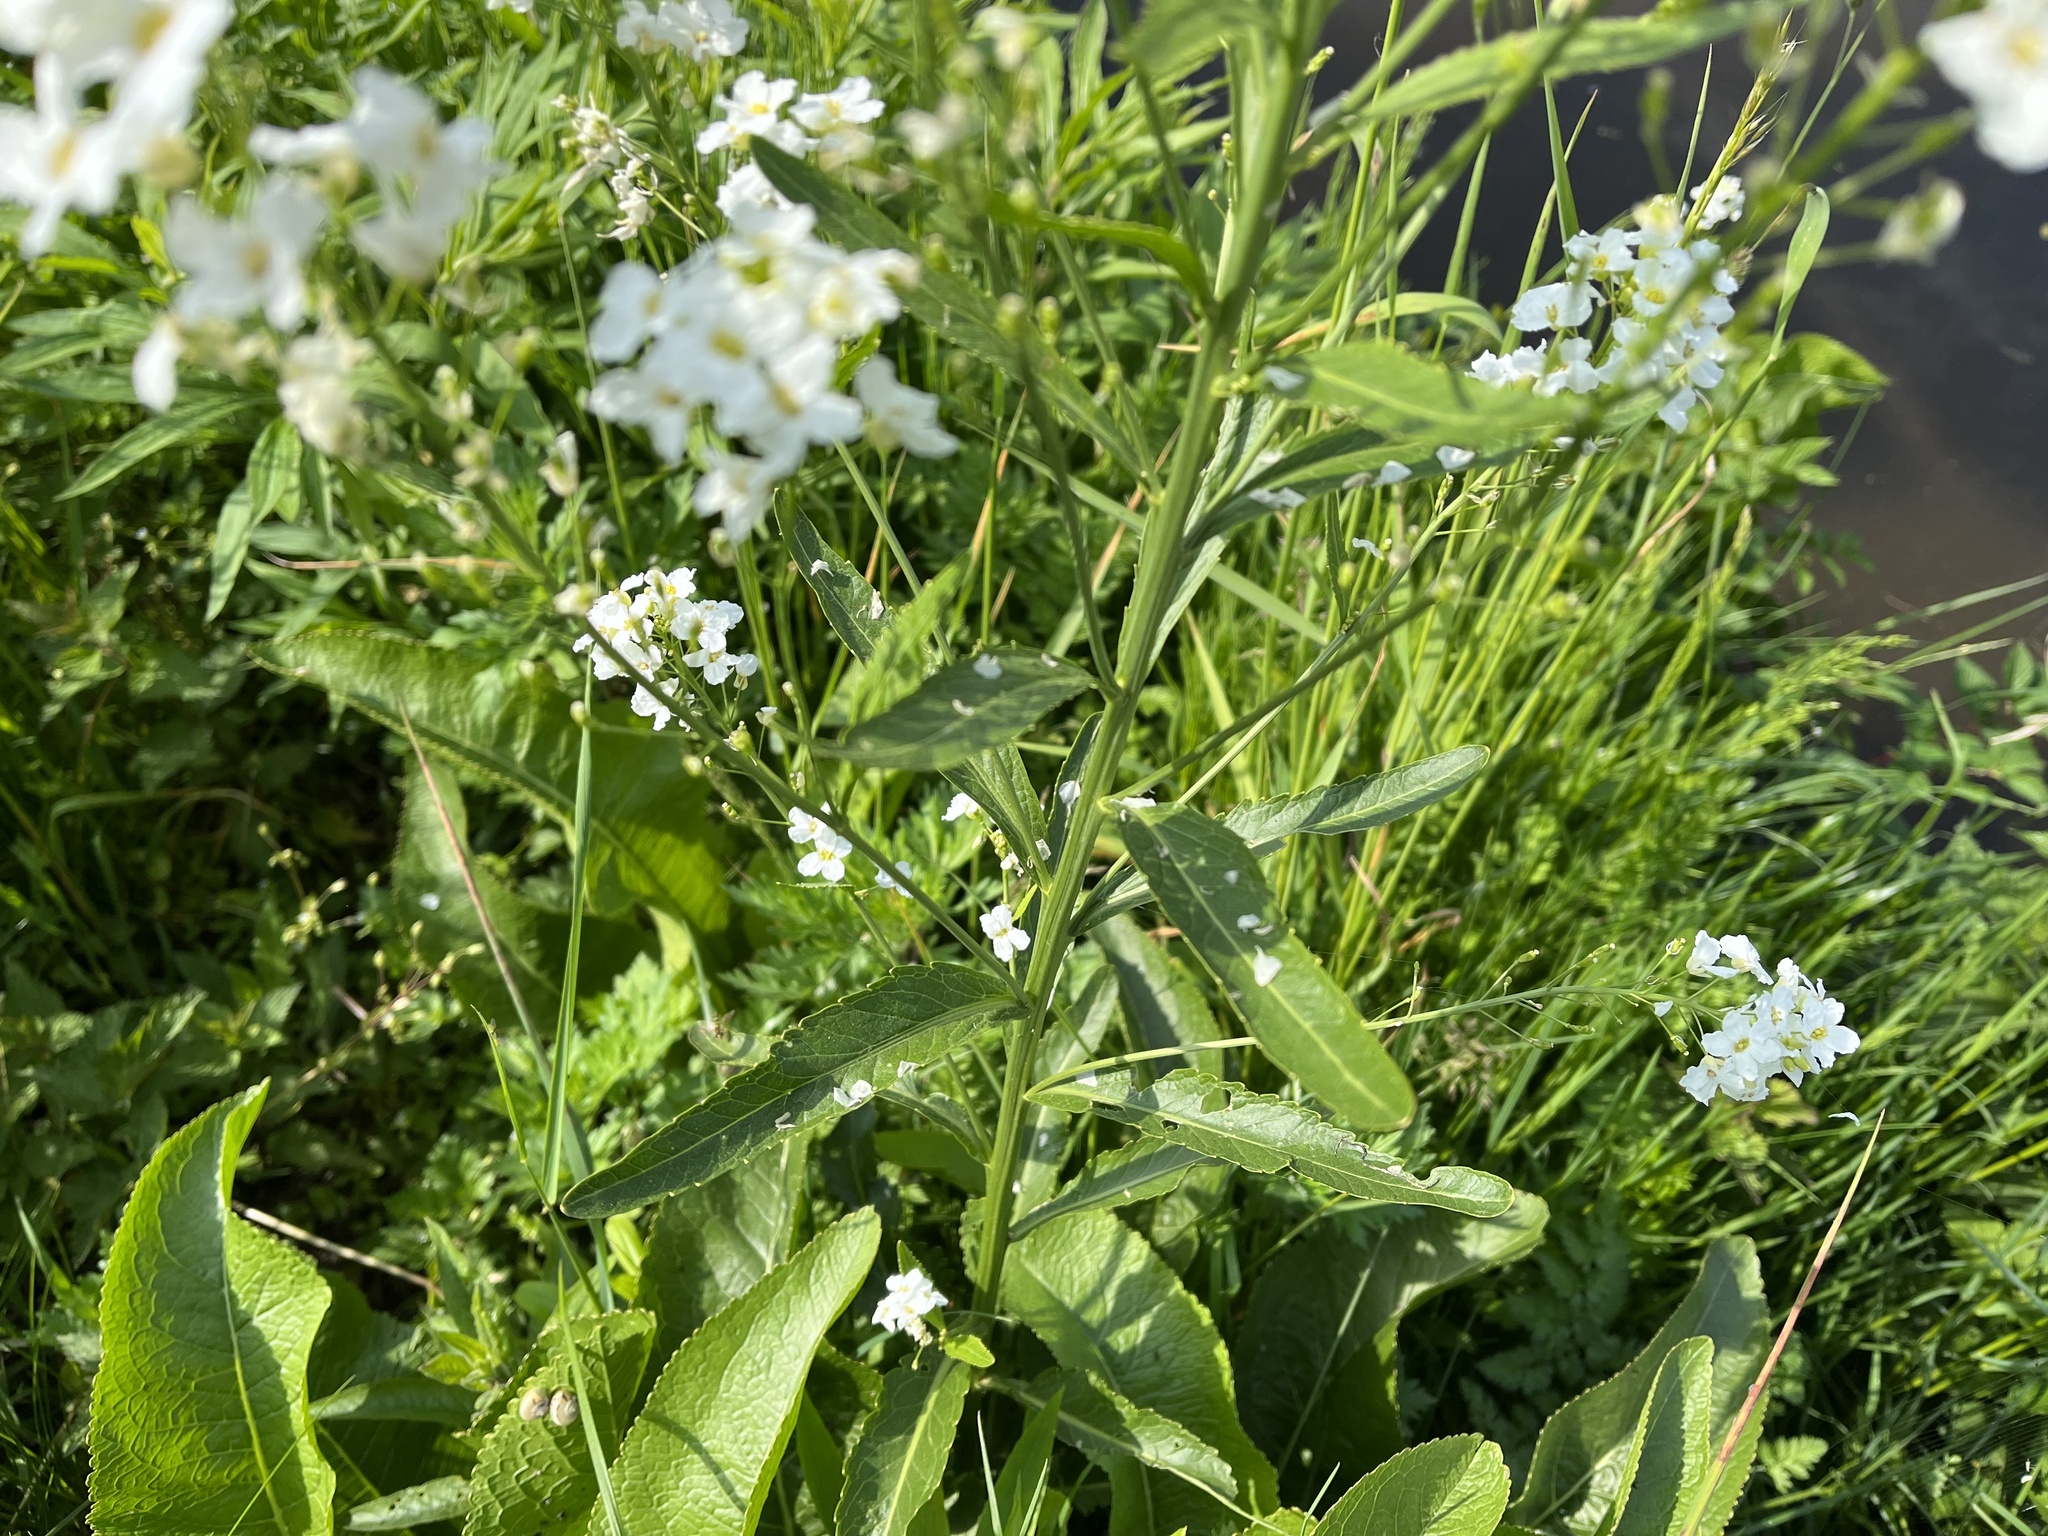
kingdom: Plantae
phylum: Tracheophyta
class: Magnoliopsida
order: Brassicales
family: Brassicaceae
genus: Armoracia
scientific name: Armoracia rusticana
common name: Horseradish
